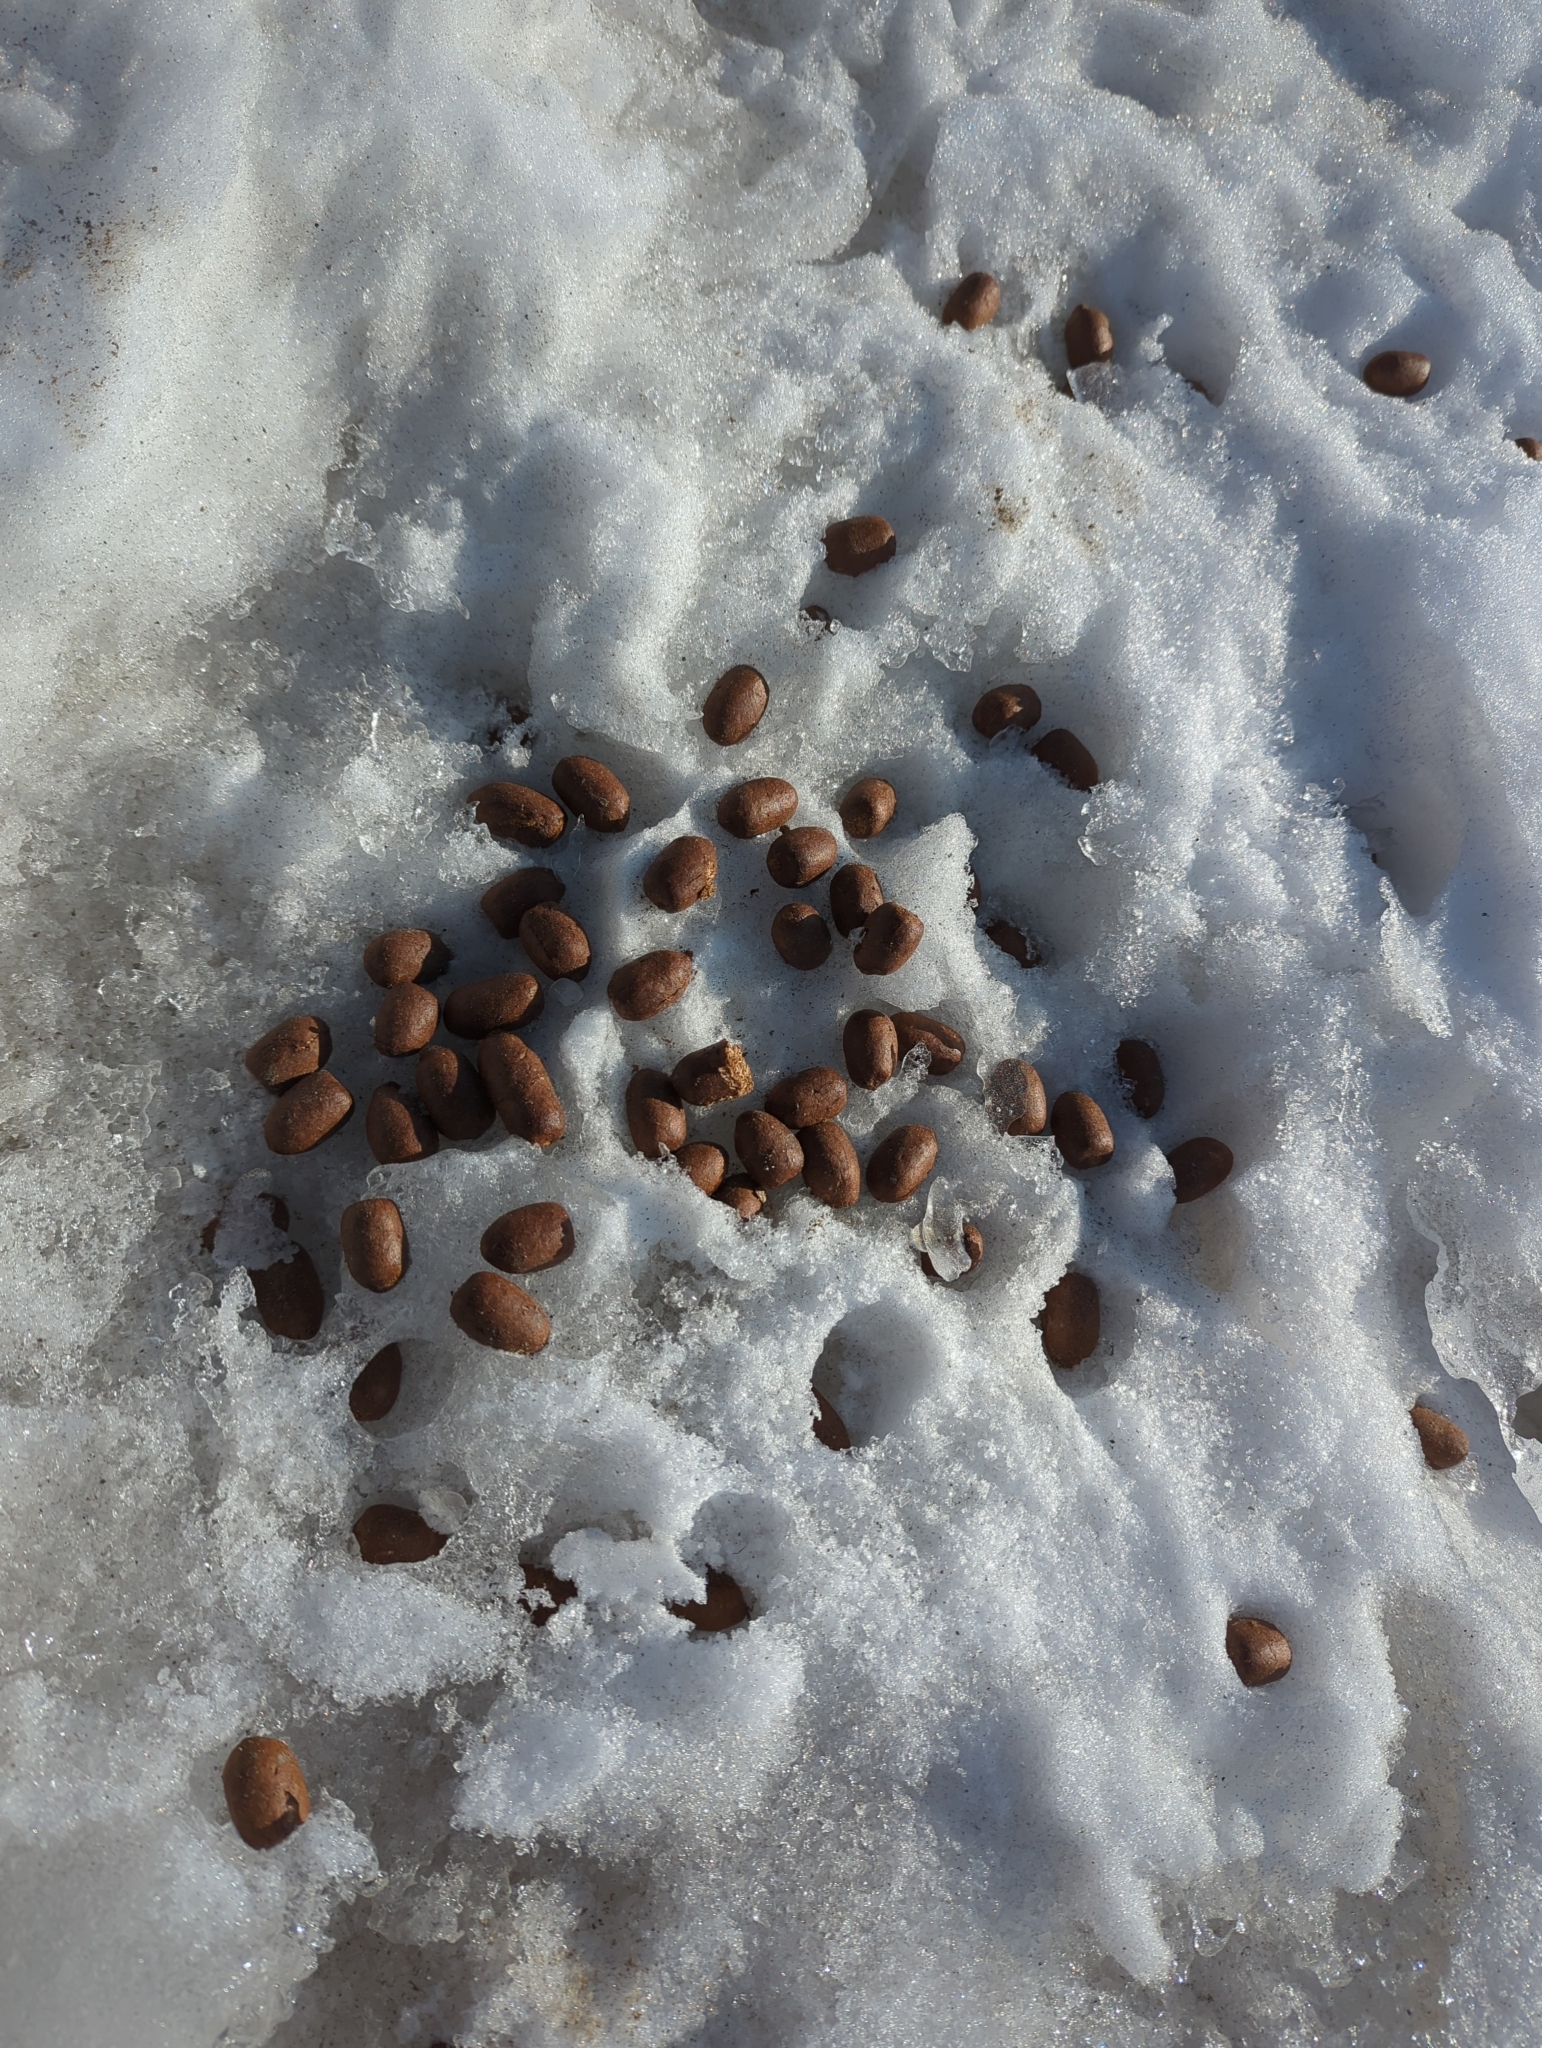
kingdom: Animalia
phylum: Chordata
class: Mammalia
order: Artiodactyla
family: Cervidae
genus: Alces
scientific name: Alces alces
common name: Moose
